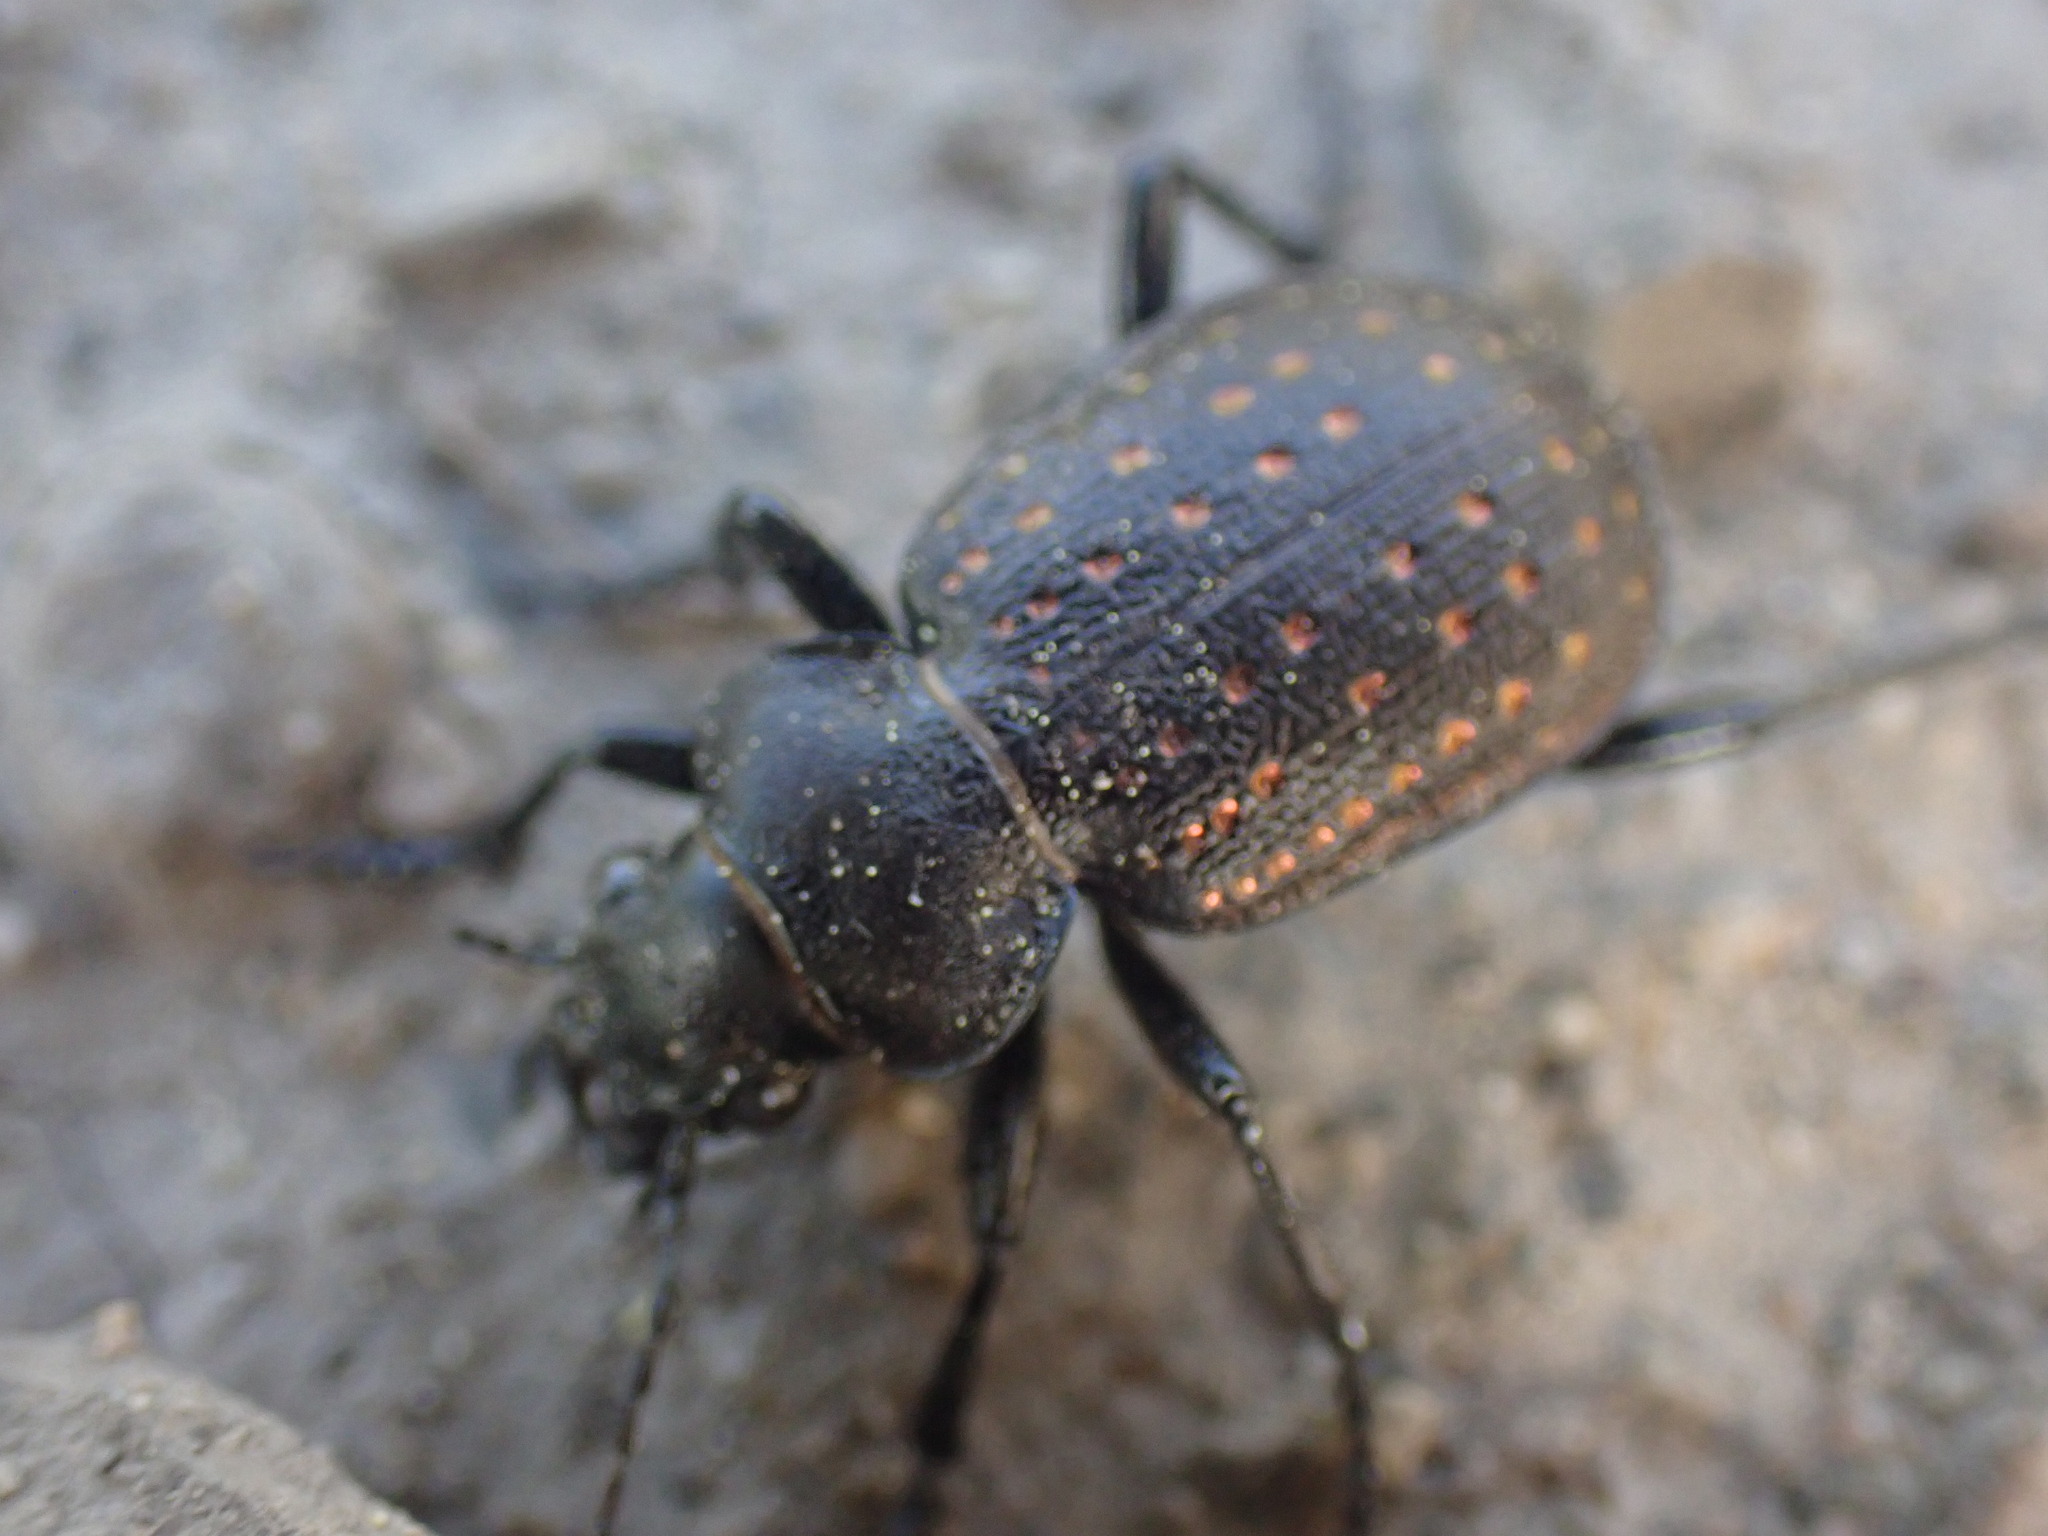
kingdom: Animalia
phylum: Arthropoda
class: Insecta
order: Coleoptera
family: Carabidae
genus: Calosoma
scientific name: Calosoma tepidum
